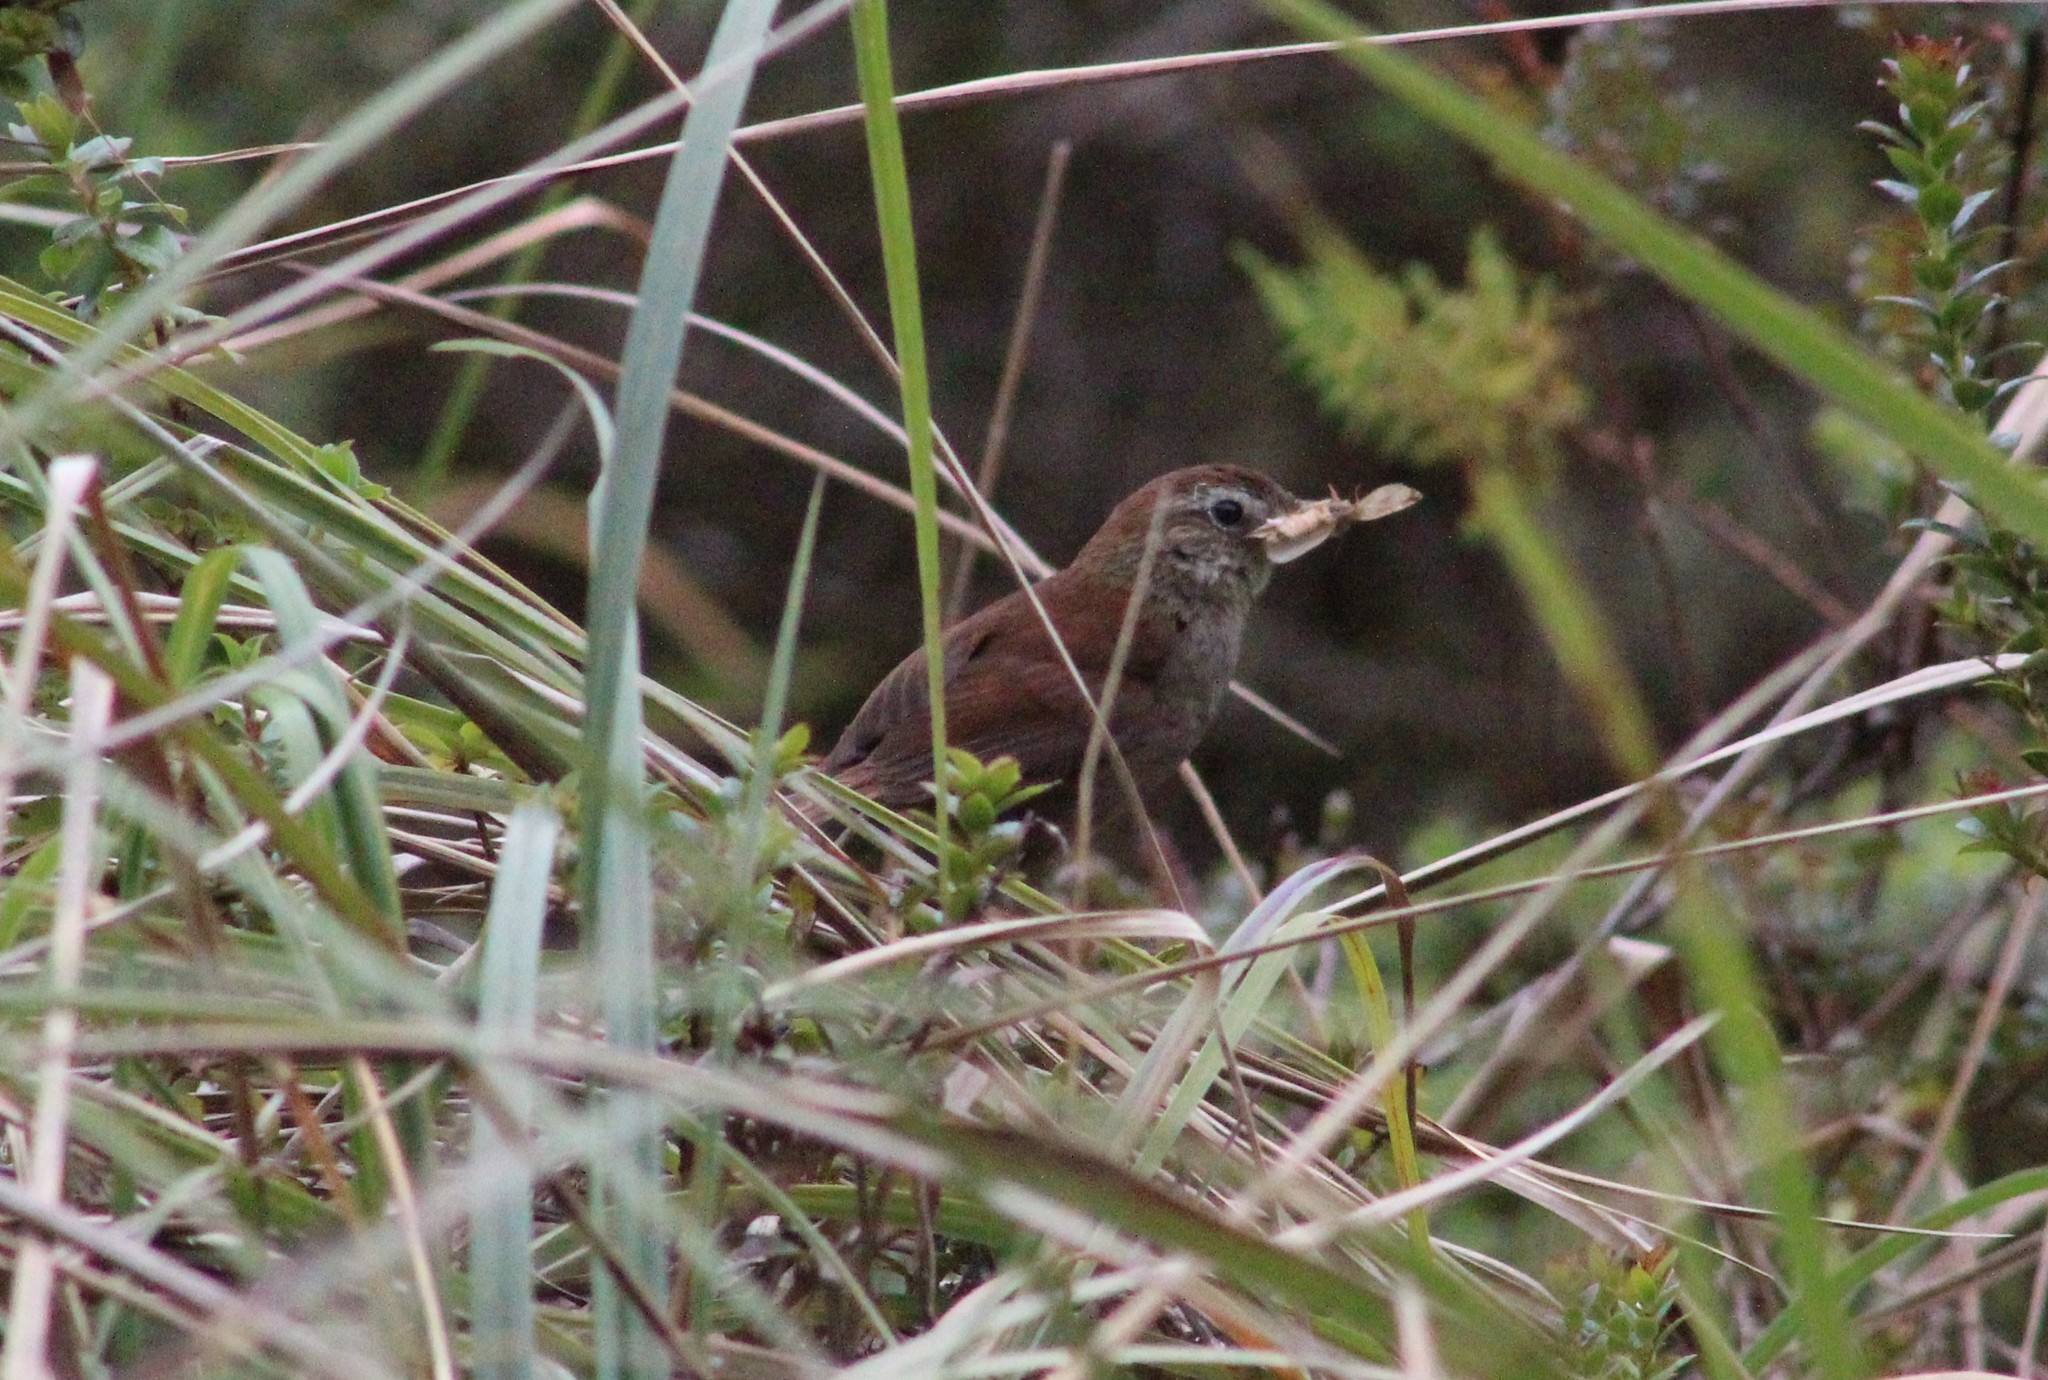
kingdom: Animalia
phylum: Chordata
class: Aves
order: Passeriformes
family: Furnariidae
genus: Schizoeaca
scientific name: Schizoeaca fuliginosa
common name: White-chinned thistletail
